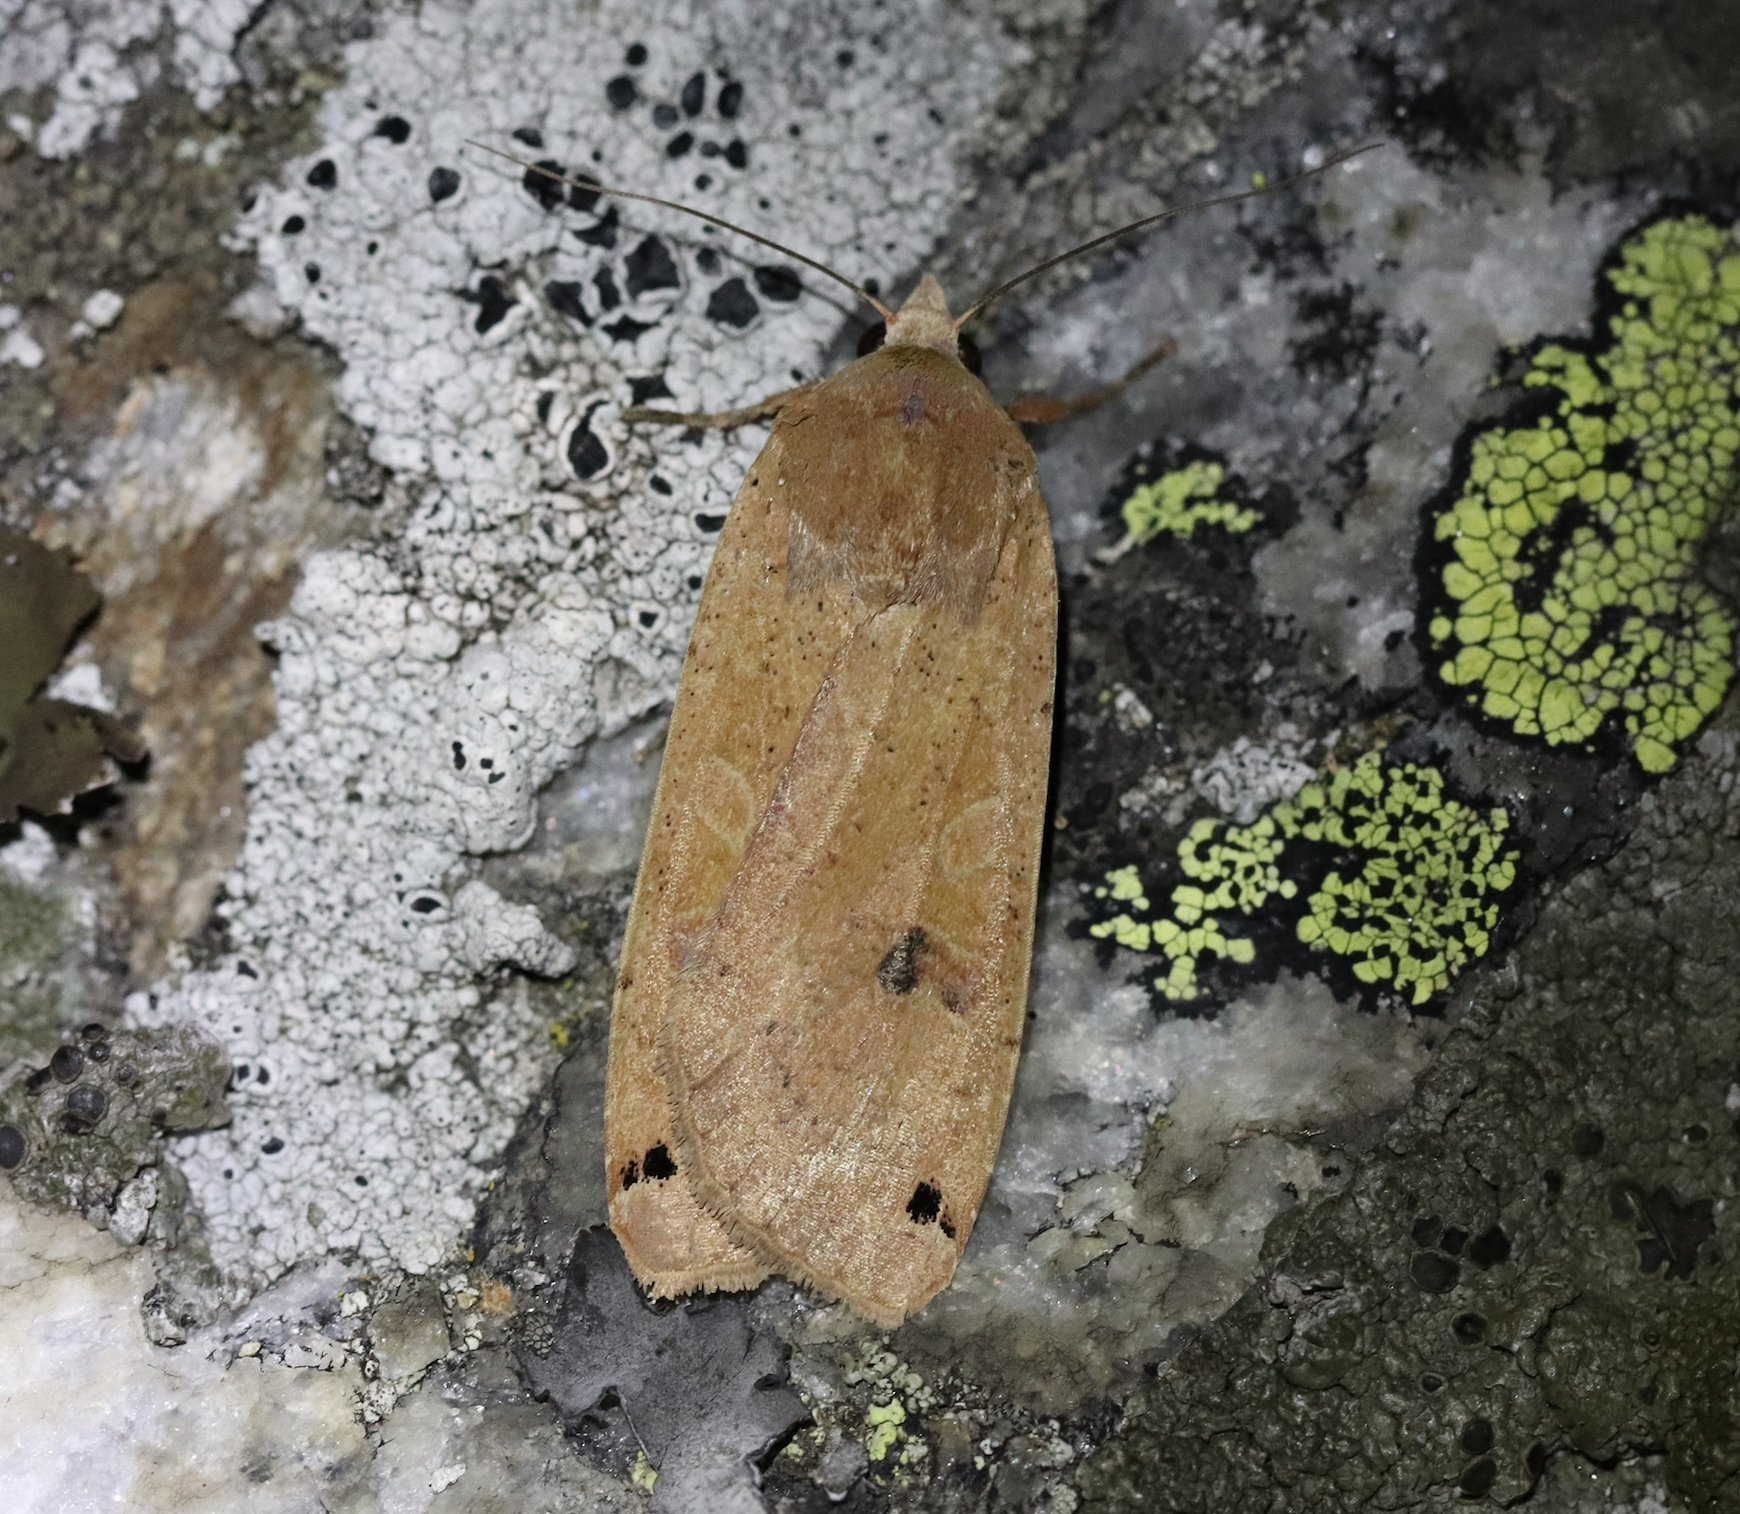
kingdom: Animalia
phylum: Arthropoda
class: Insecta
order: Lepidoptera
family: Noctuidae
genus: Noctua
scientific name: Noctua pronuba
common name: Large yellow underwing
